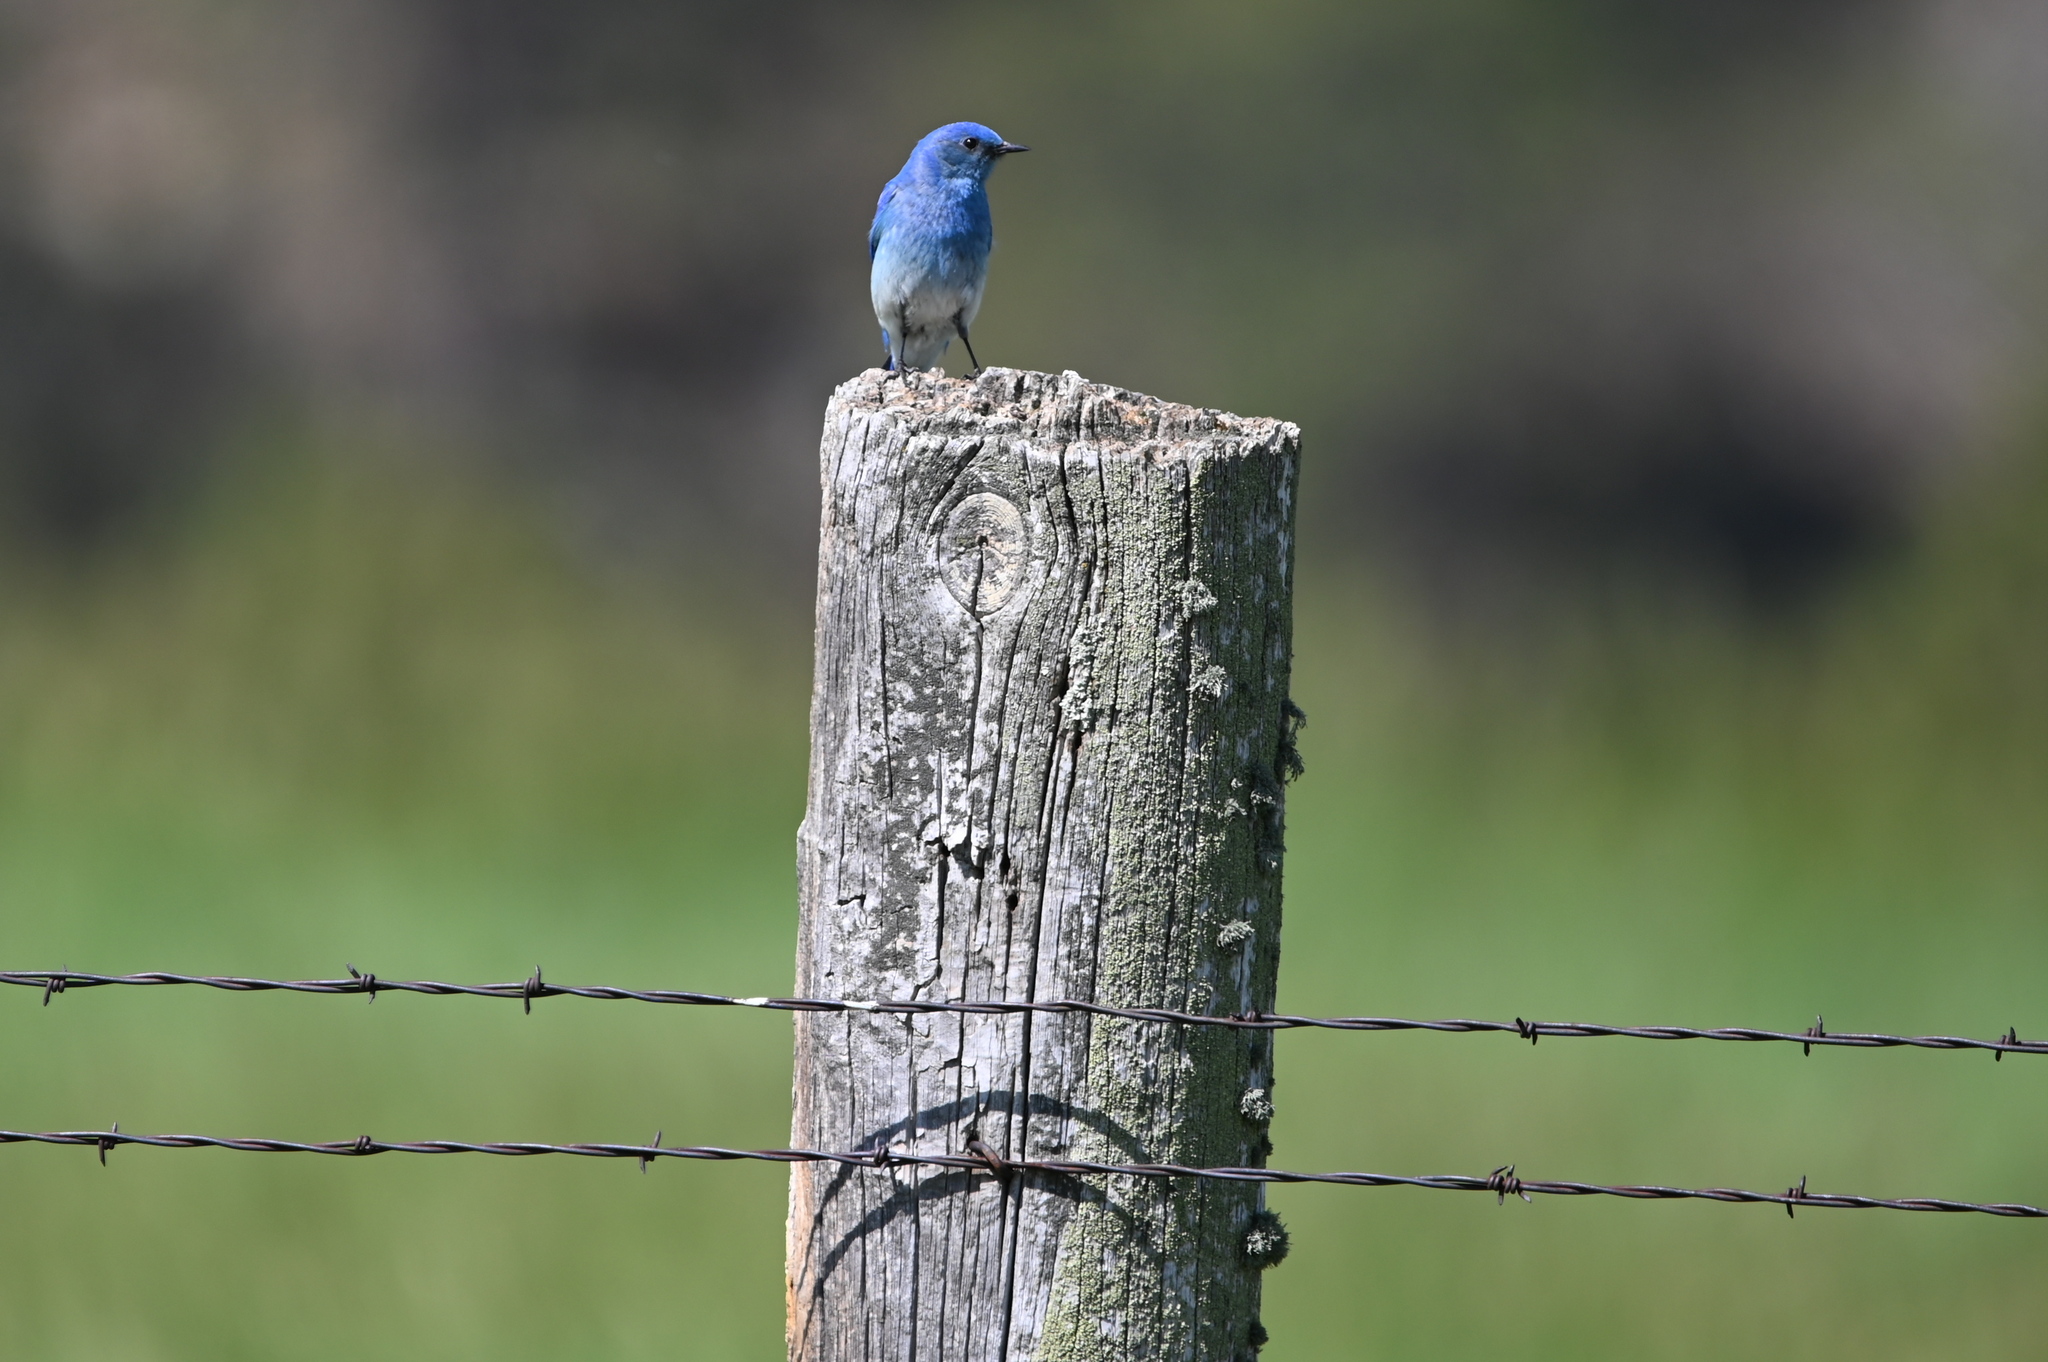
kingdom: Animalia
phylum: Chordata
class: Aves
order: Passeriformes
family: Turdidae
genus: Sialia
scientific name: Sialia currucoides
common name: Mountain bluebird
